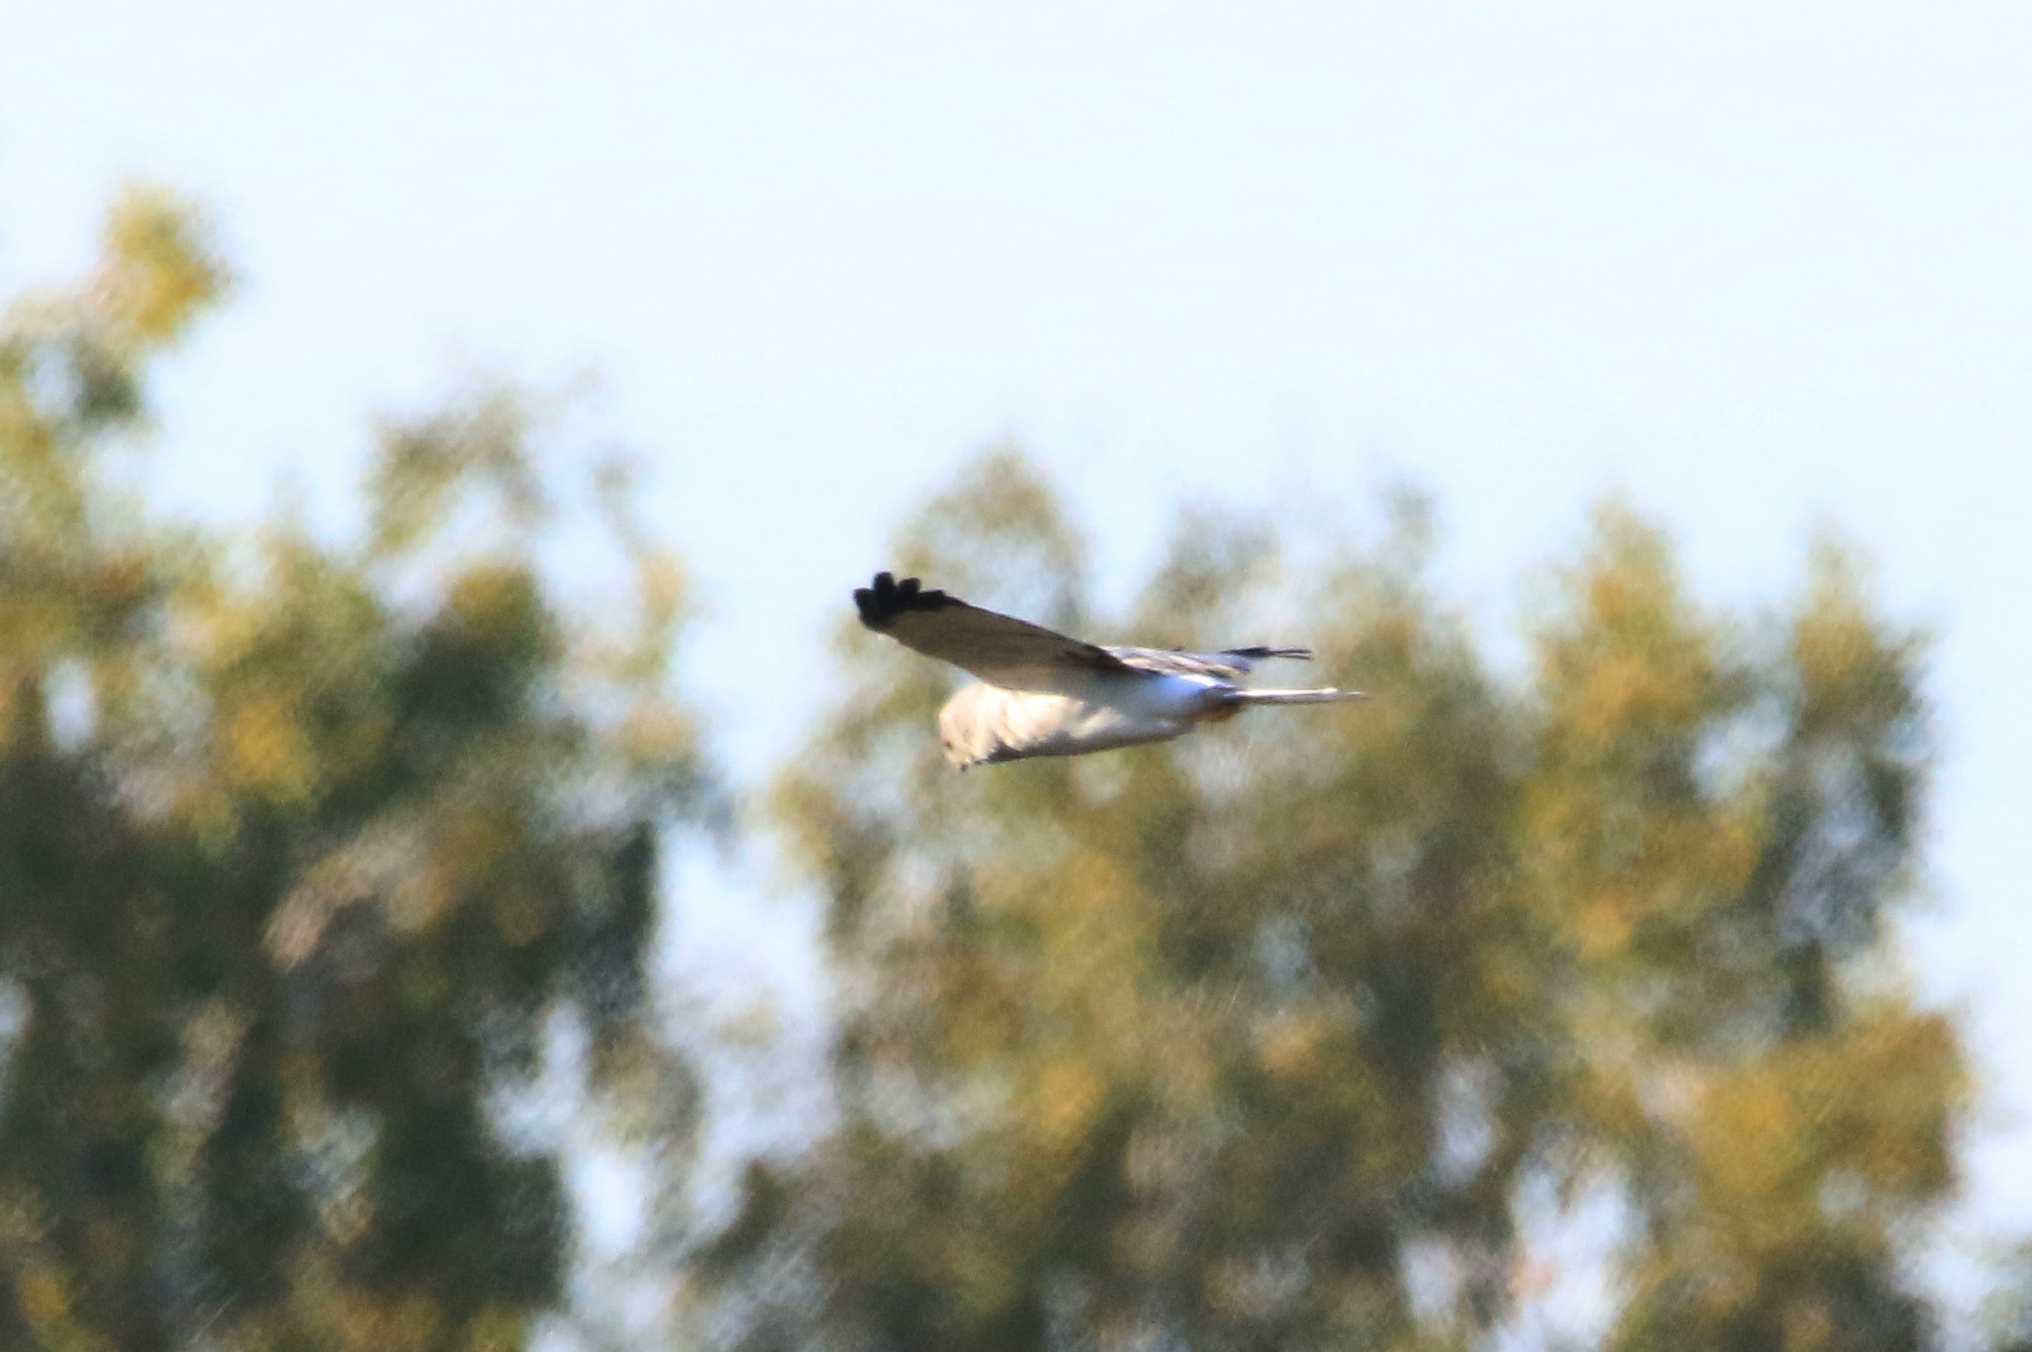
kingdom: Animalia
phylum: Chordata
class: Aves
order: Accipitriformes
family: Accipitridae
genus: Circus
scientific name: Circus cyaneus
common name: Hen harrier
